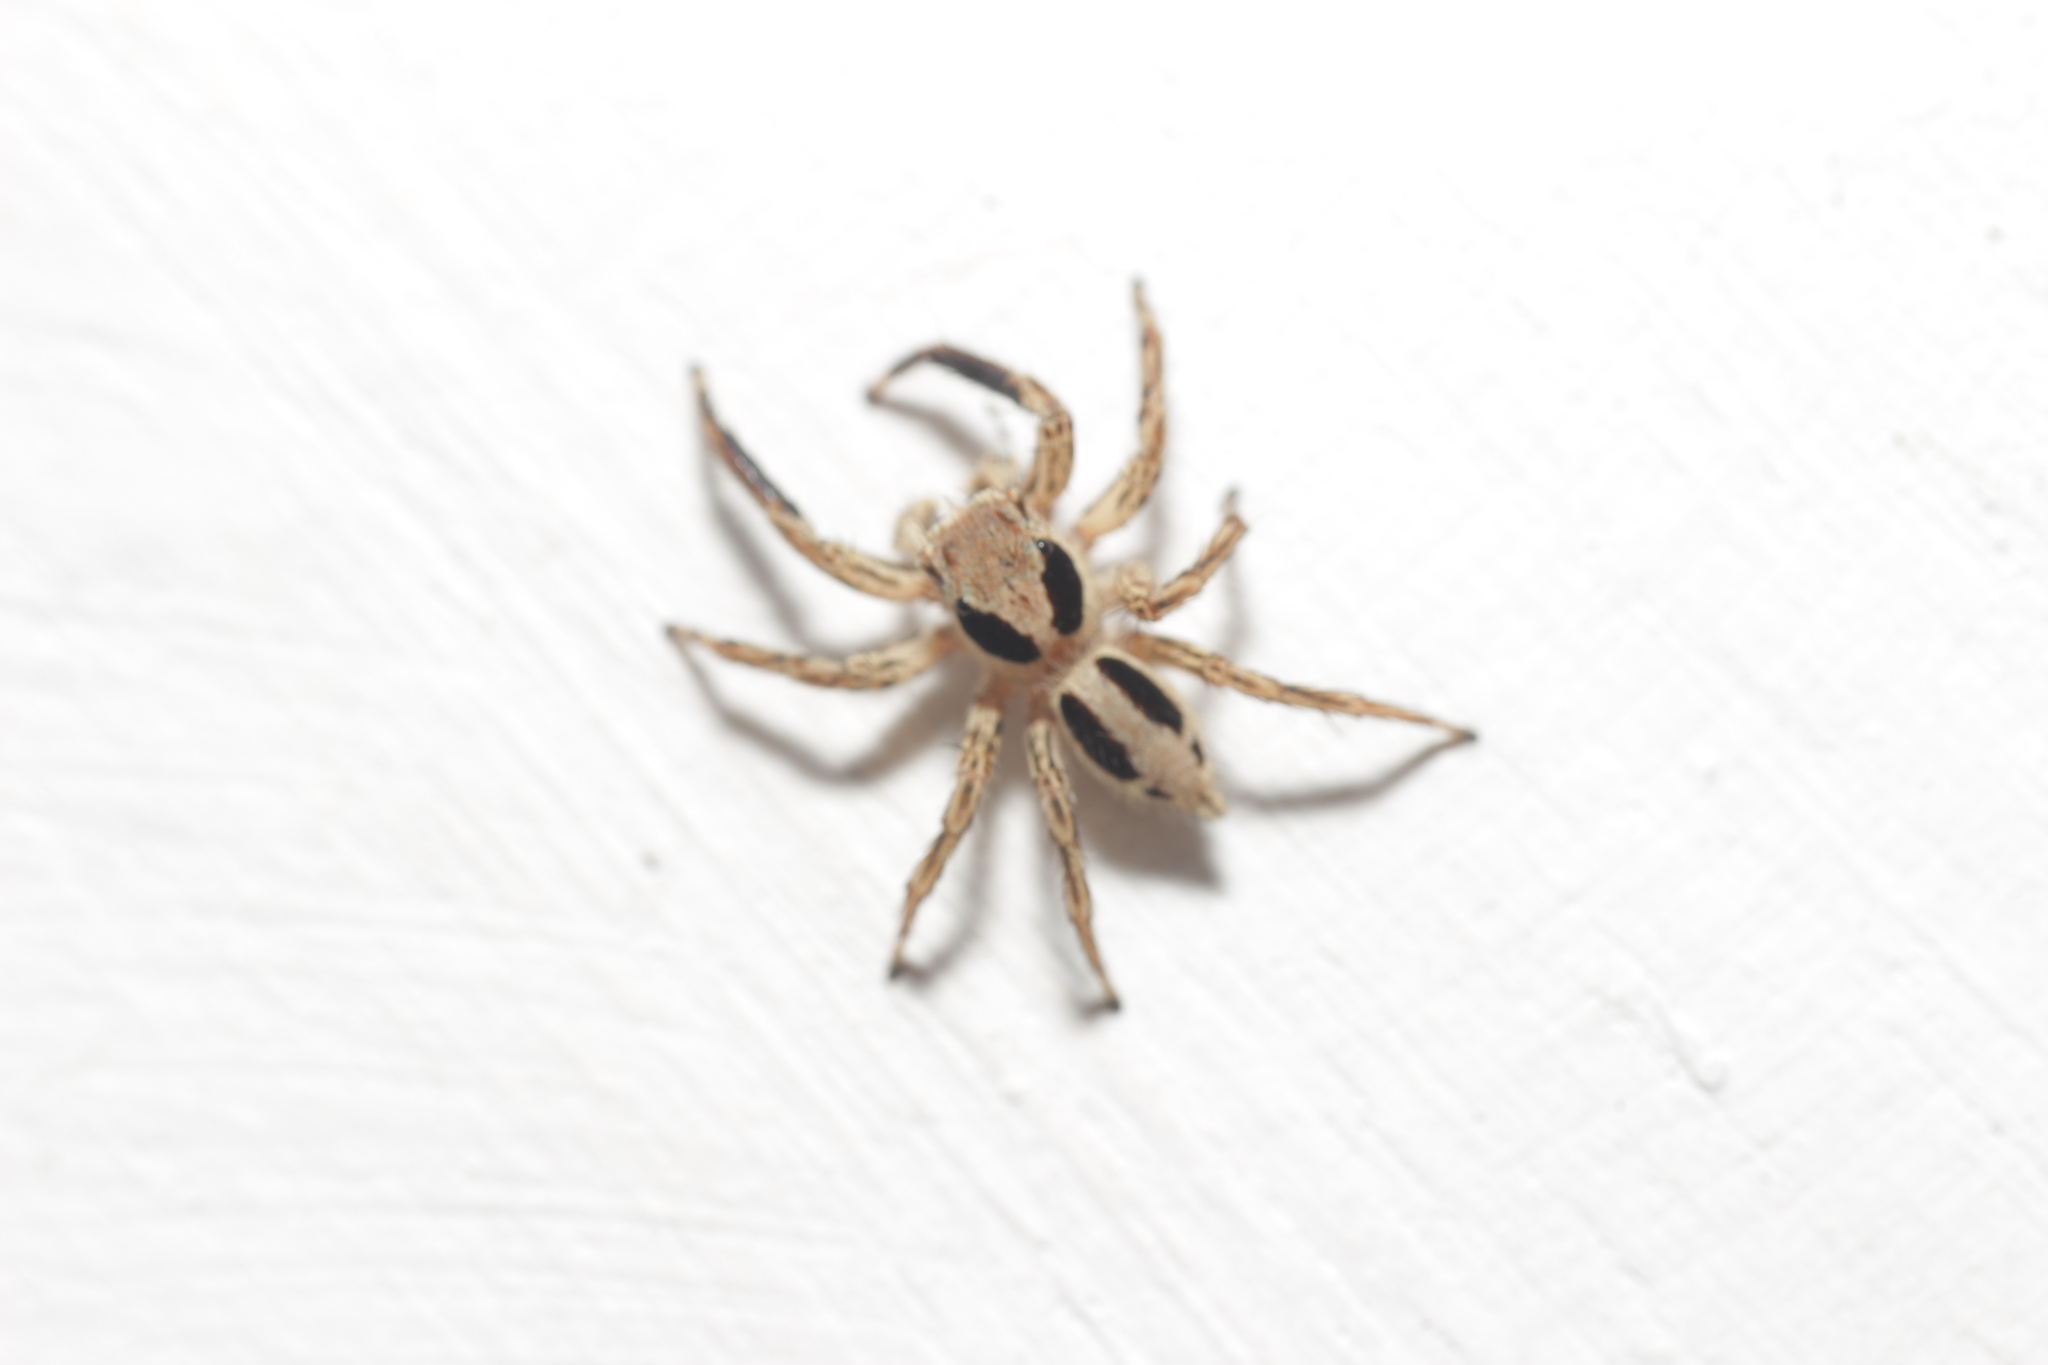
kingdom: Animalia
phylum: Arthropoda
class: Arachnida
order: Araneae
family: Salticidae
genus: Plexippus
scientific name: Plexippus petersi
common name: Jumping spider
